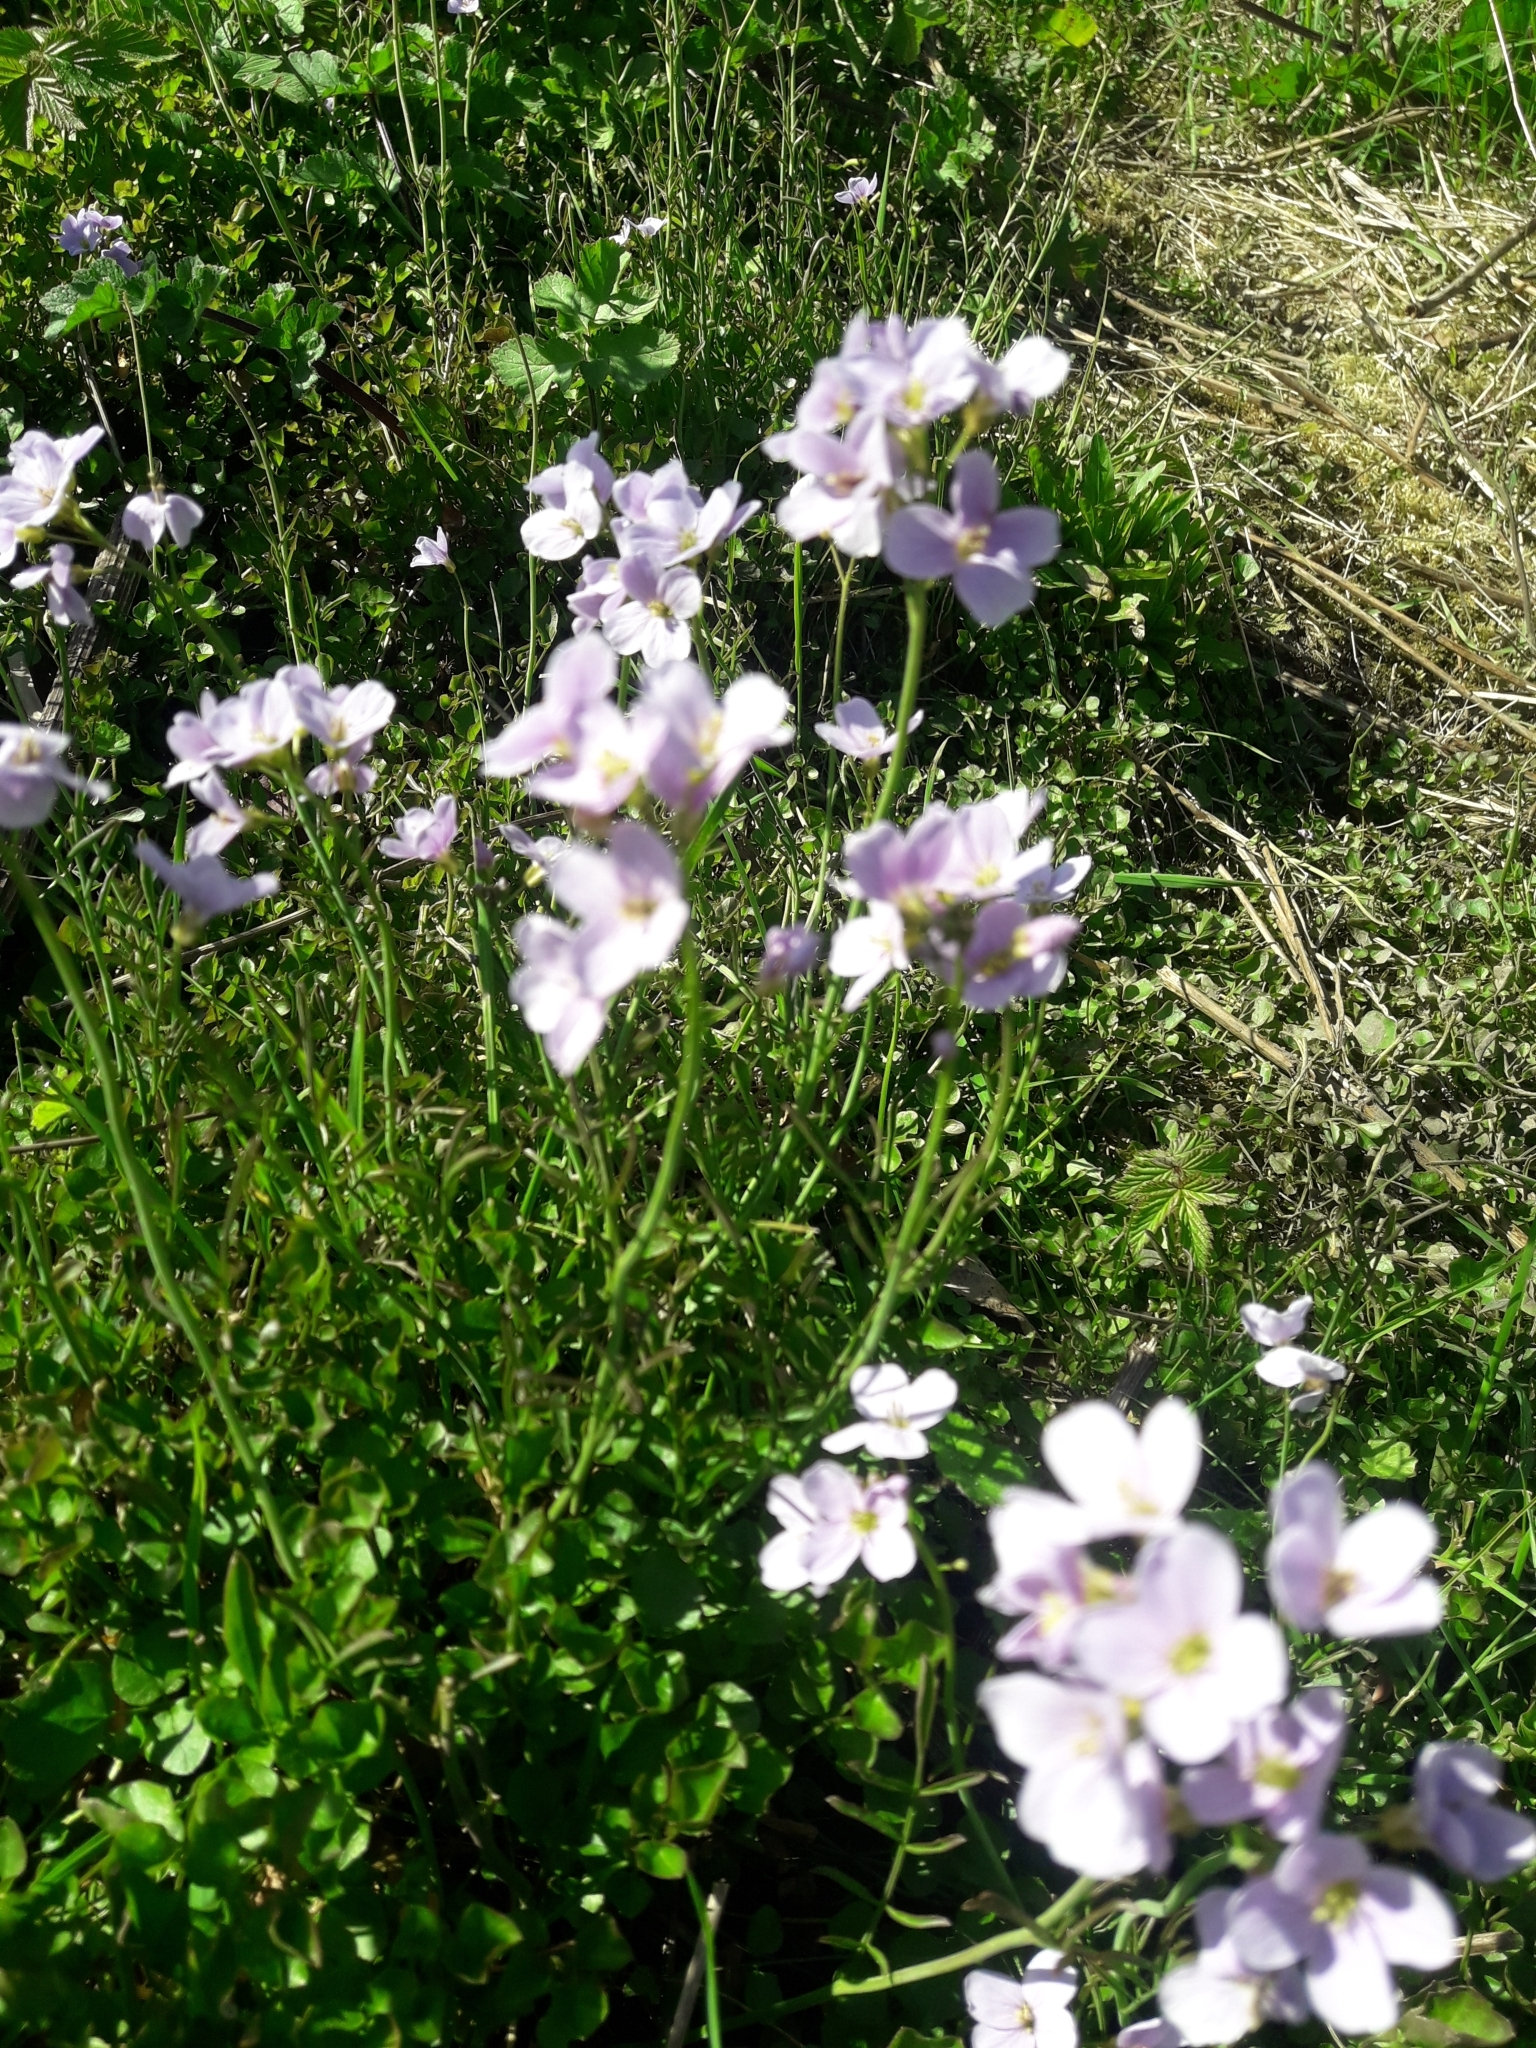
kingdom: Plantae
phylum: Tracheophyta
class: Magnoliopsida
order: Brassicales
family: Brassicaceae
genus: Cardamine
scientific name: Cardamine pratensis
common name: Cuckoo flower
